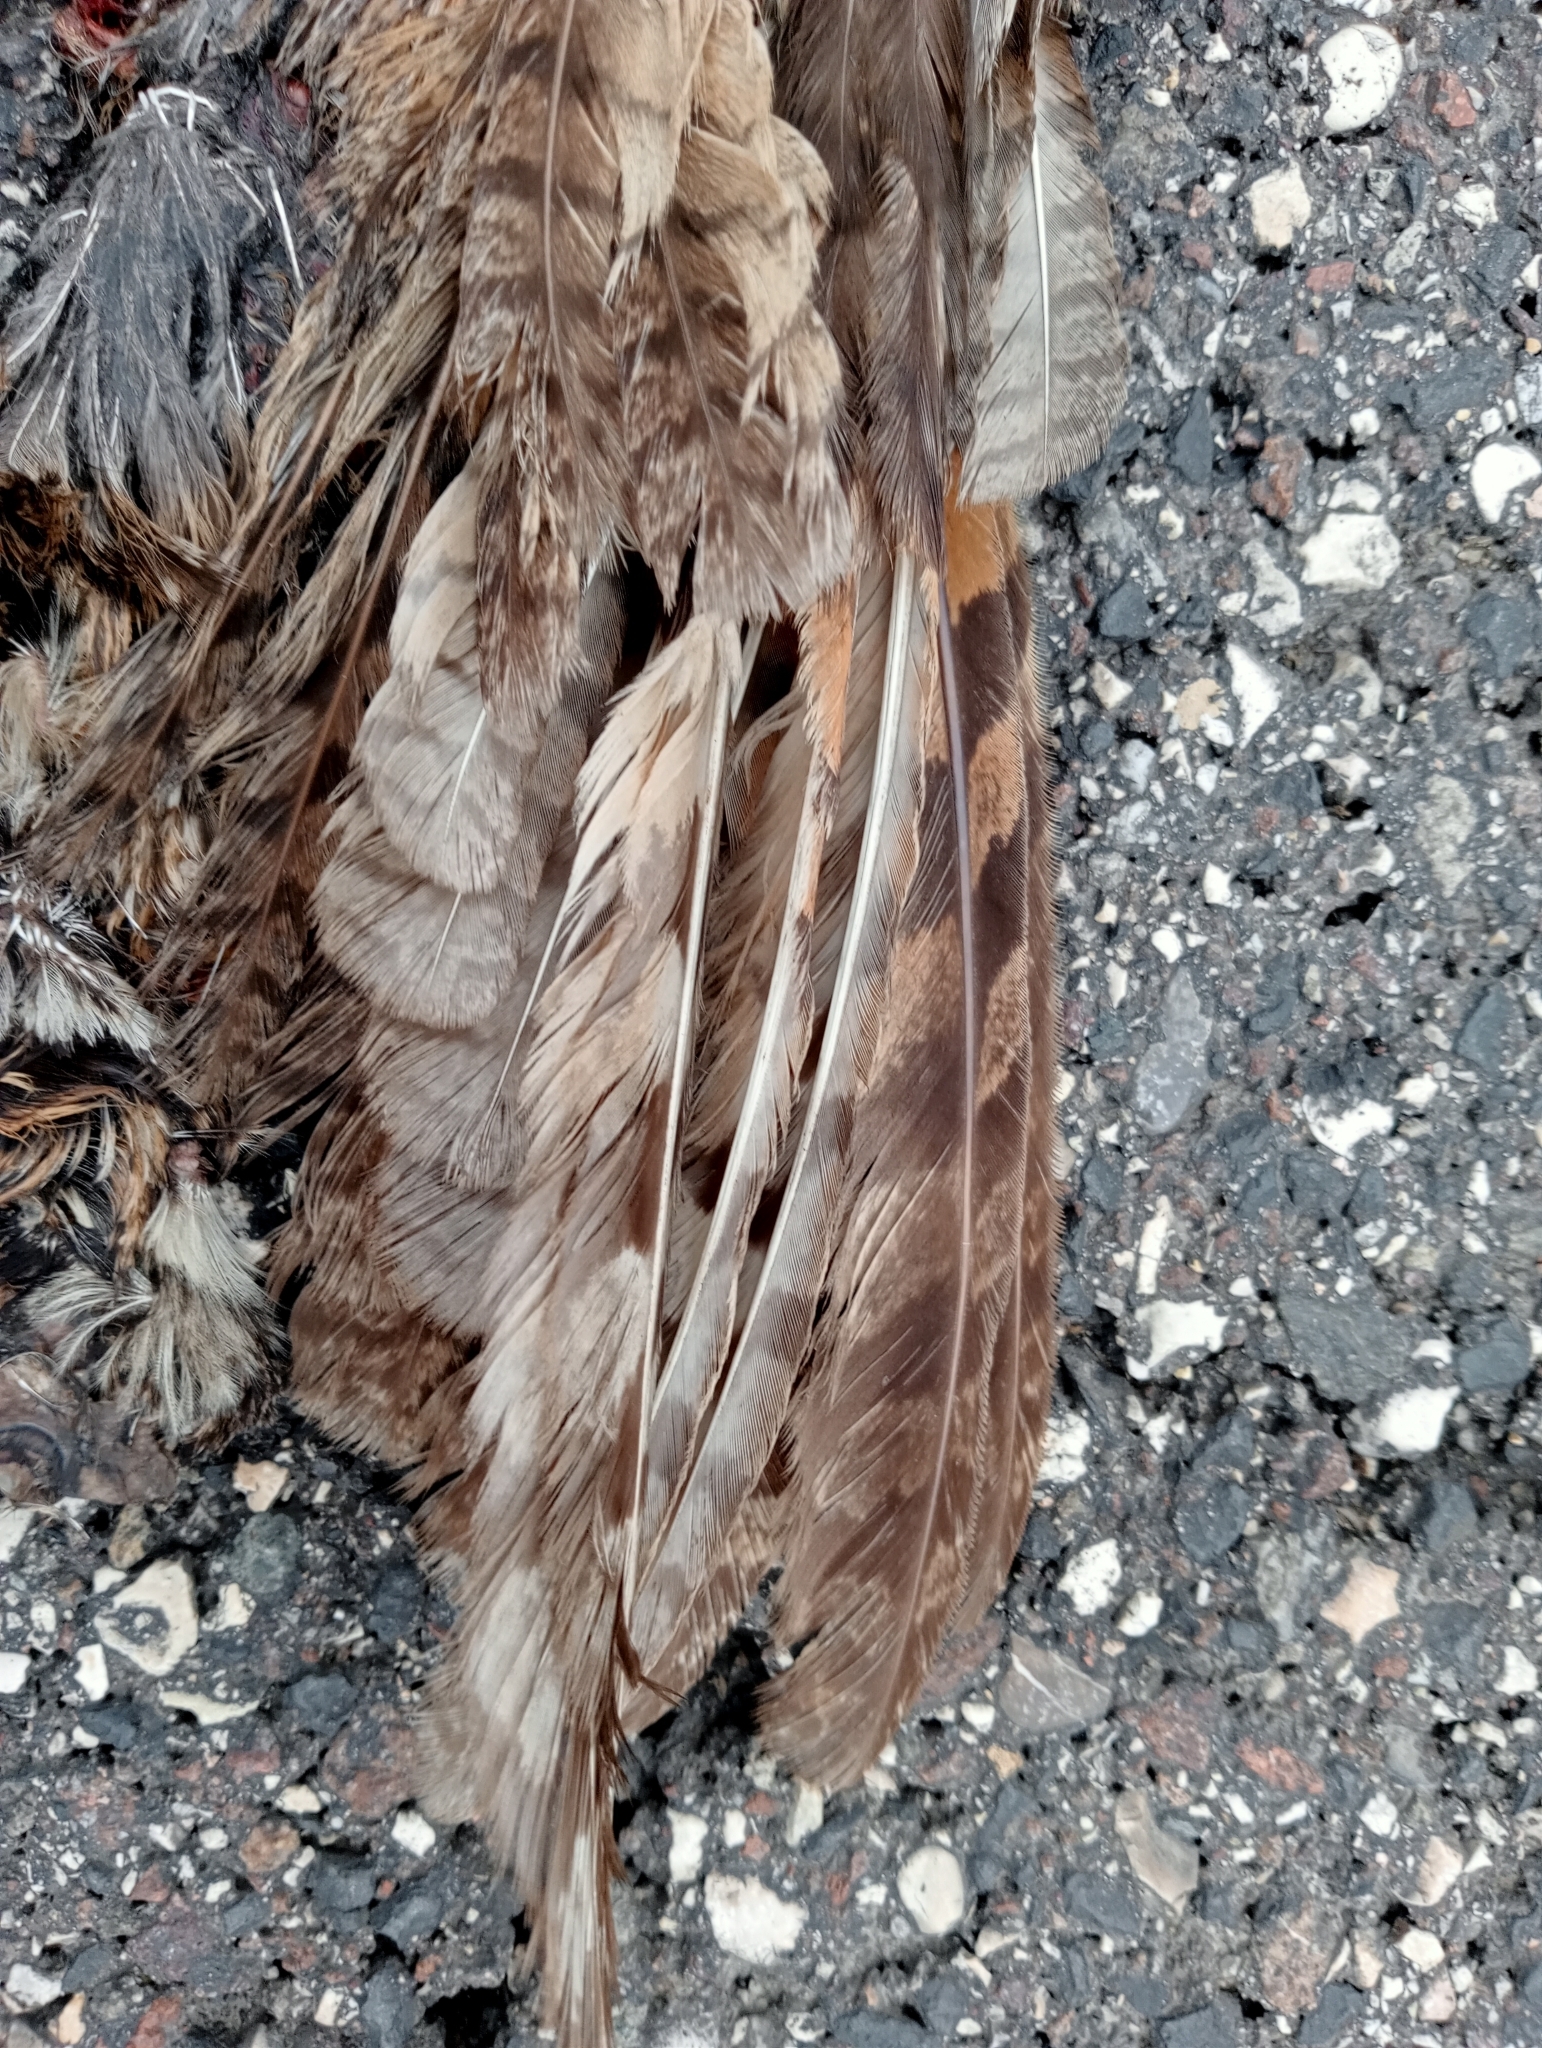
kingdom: Animalia
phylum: Chordata
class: Aves
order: Strigiformes
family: Strigidae
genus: Asio
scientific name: Asio otus
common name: Long-eared owl
